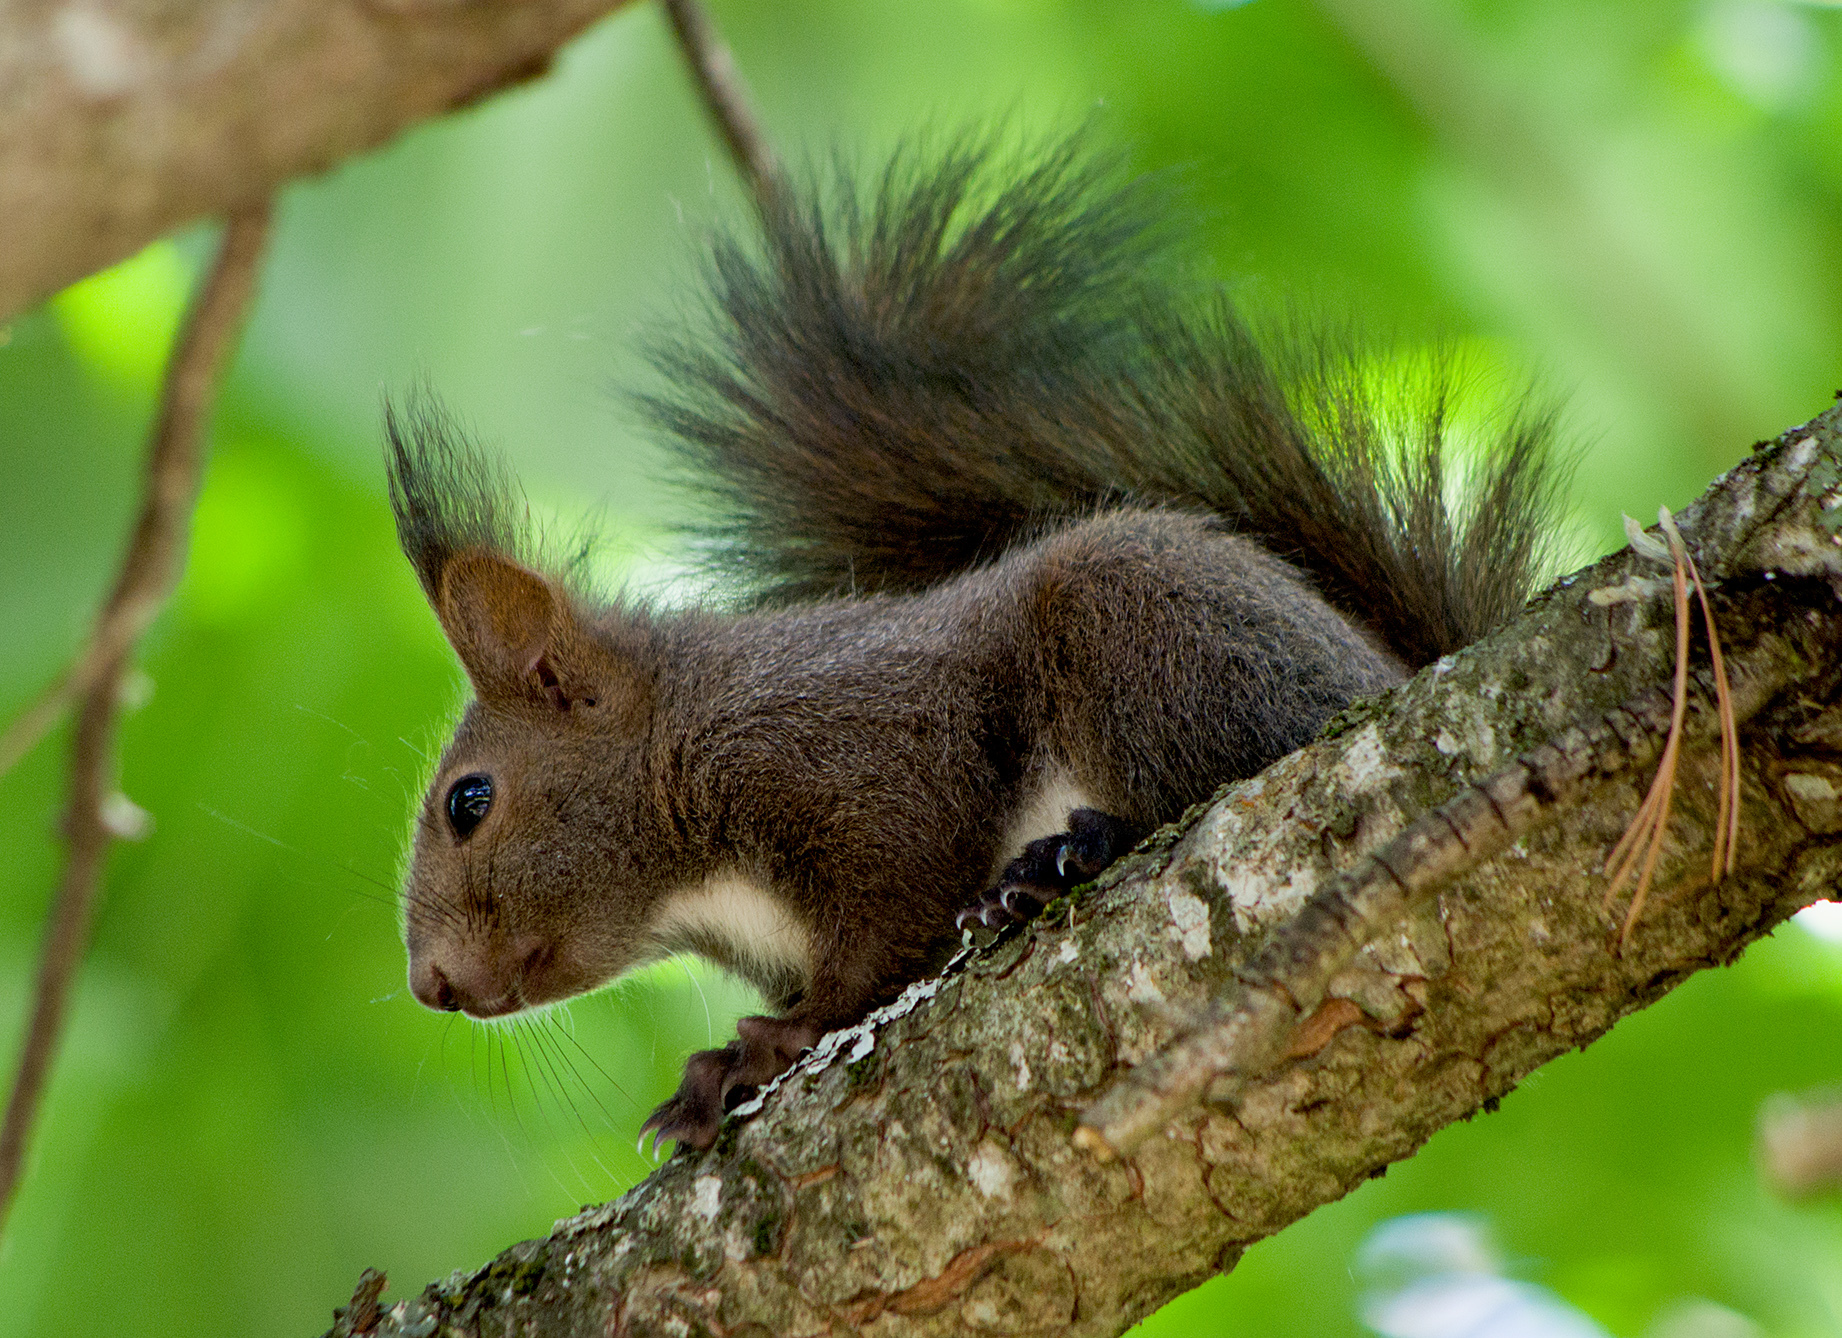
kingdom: Animalia
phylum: Chordata
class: Mammalia
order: Rodentia
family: Sciuridae
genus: Sciurus
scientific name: Sciurus vulgaris
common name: Eurasian red squirrel
